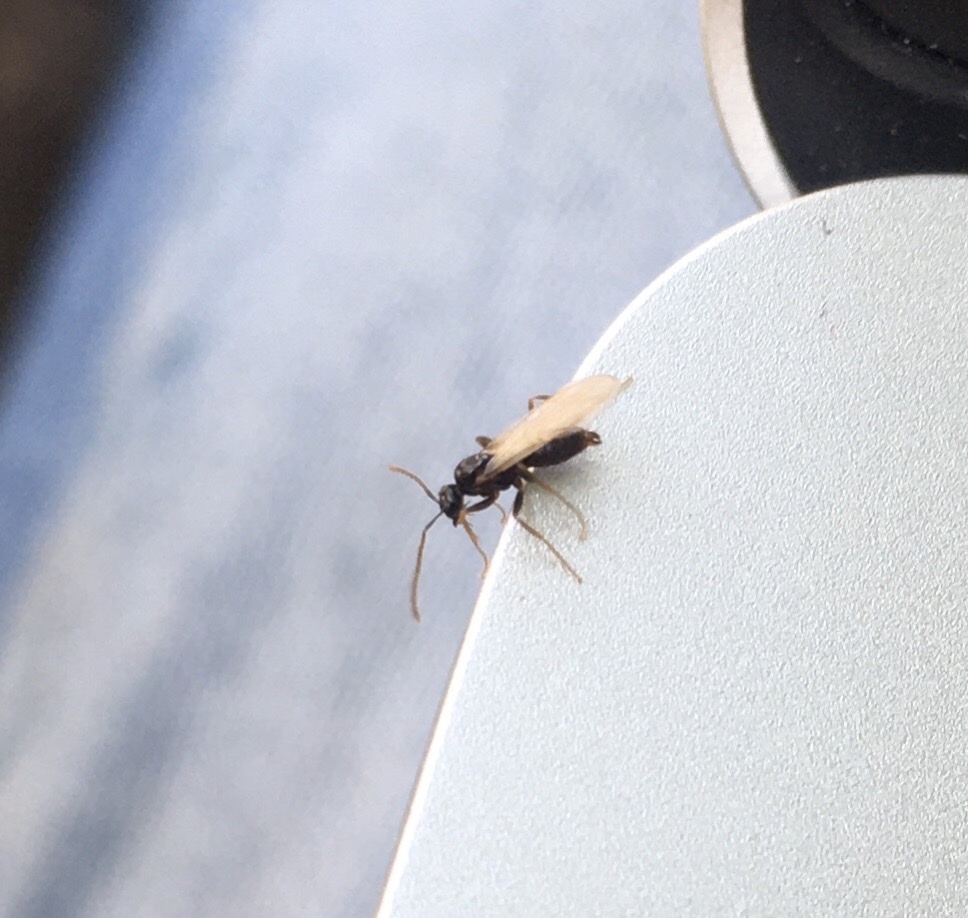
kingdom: Animalia
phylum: Arthropoda
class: Insecta
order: Hymenoptera
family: Formicidae
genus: Prenolepis
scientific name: Prenolepis imparis
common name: Small honey ant
